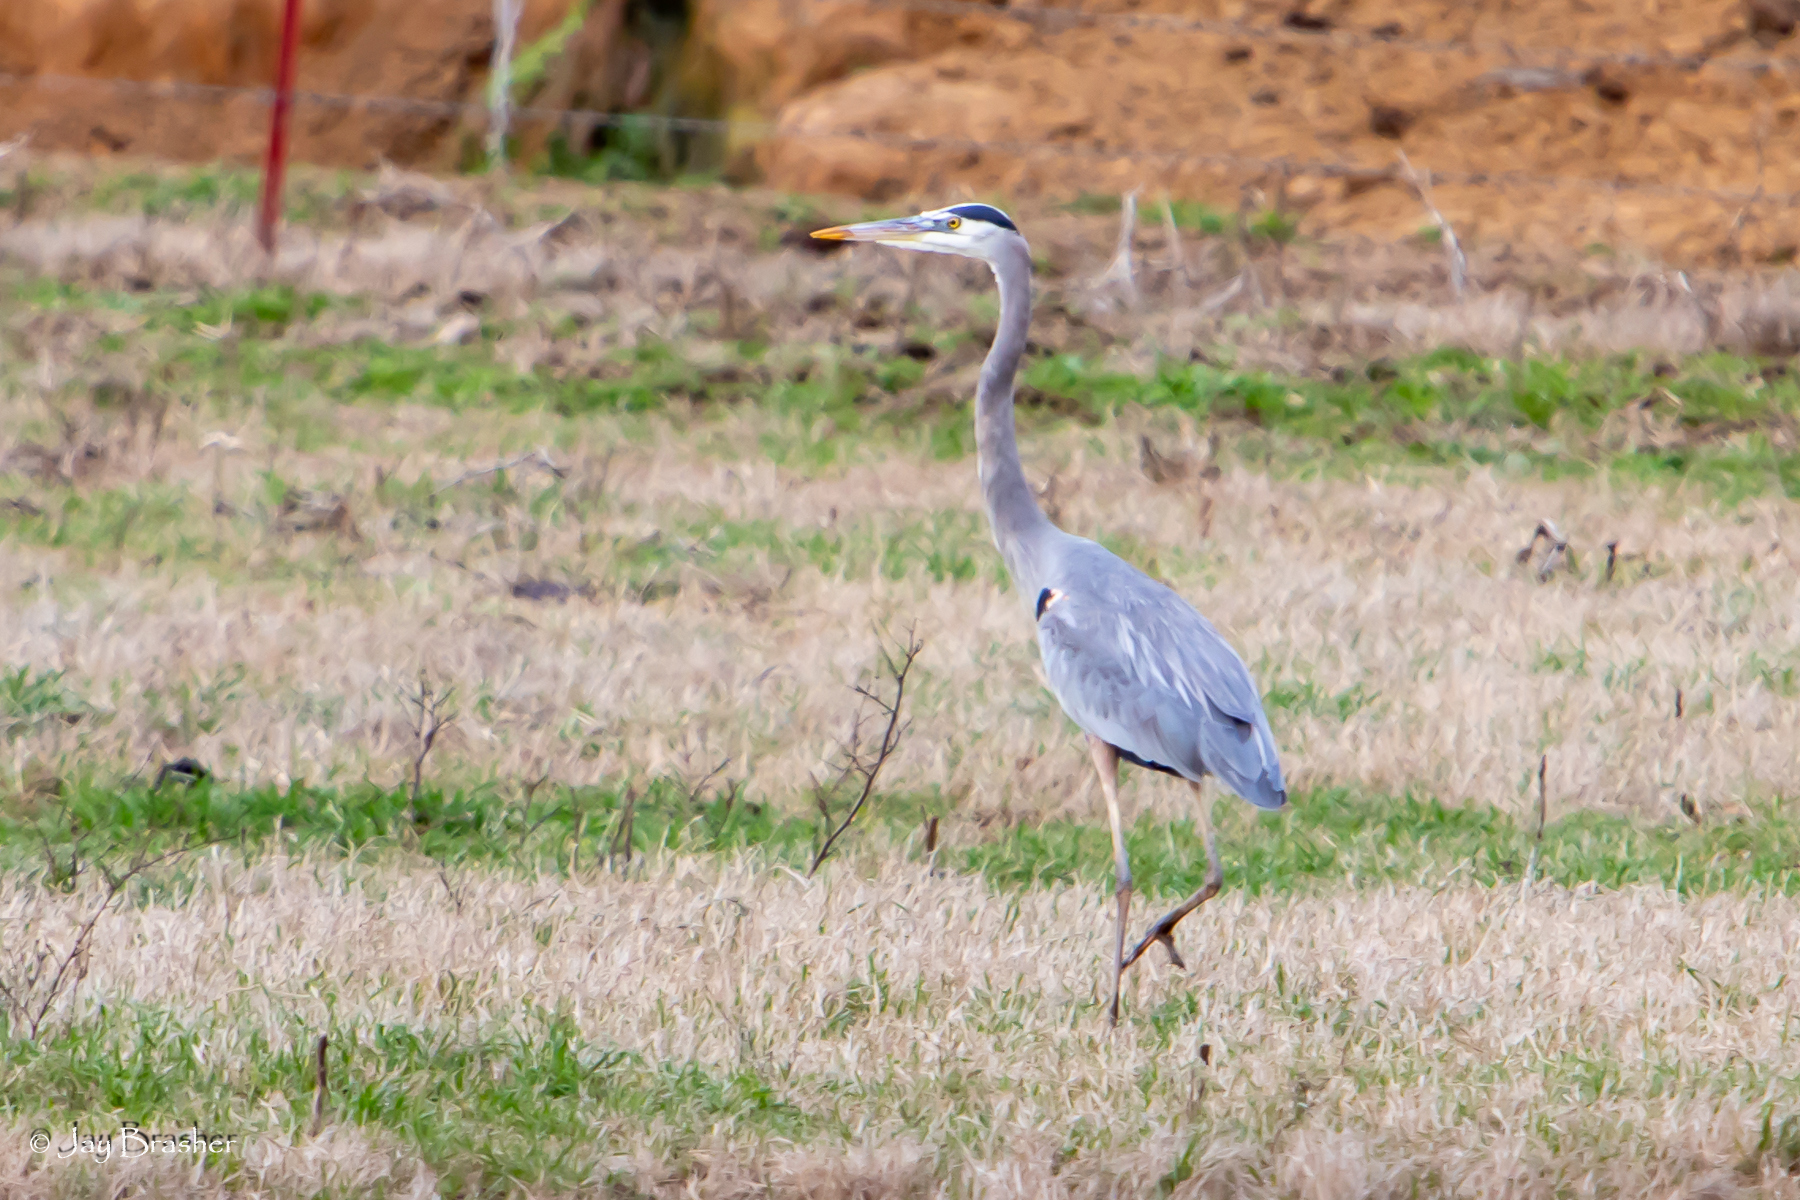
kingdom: Animalia
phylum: Chordata
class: Aves
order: Pelecaniformes
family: Ardeidae
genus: Ardea
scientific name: Ardea herodias
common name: Great blue heron
